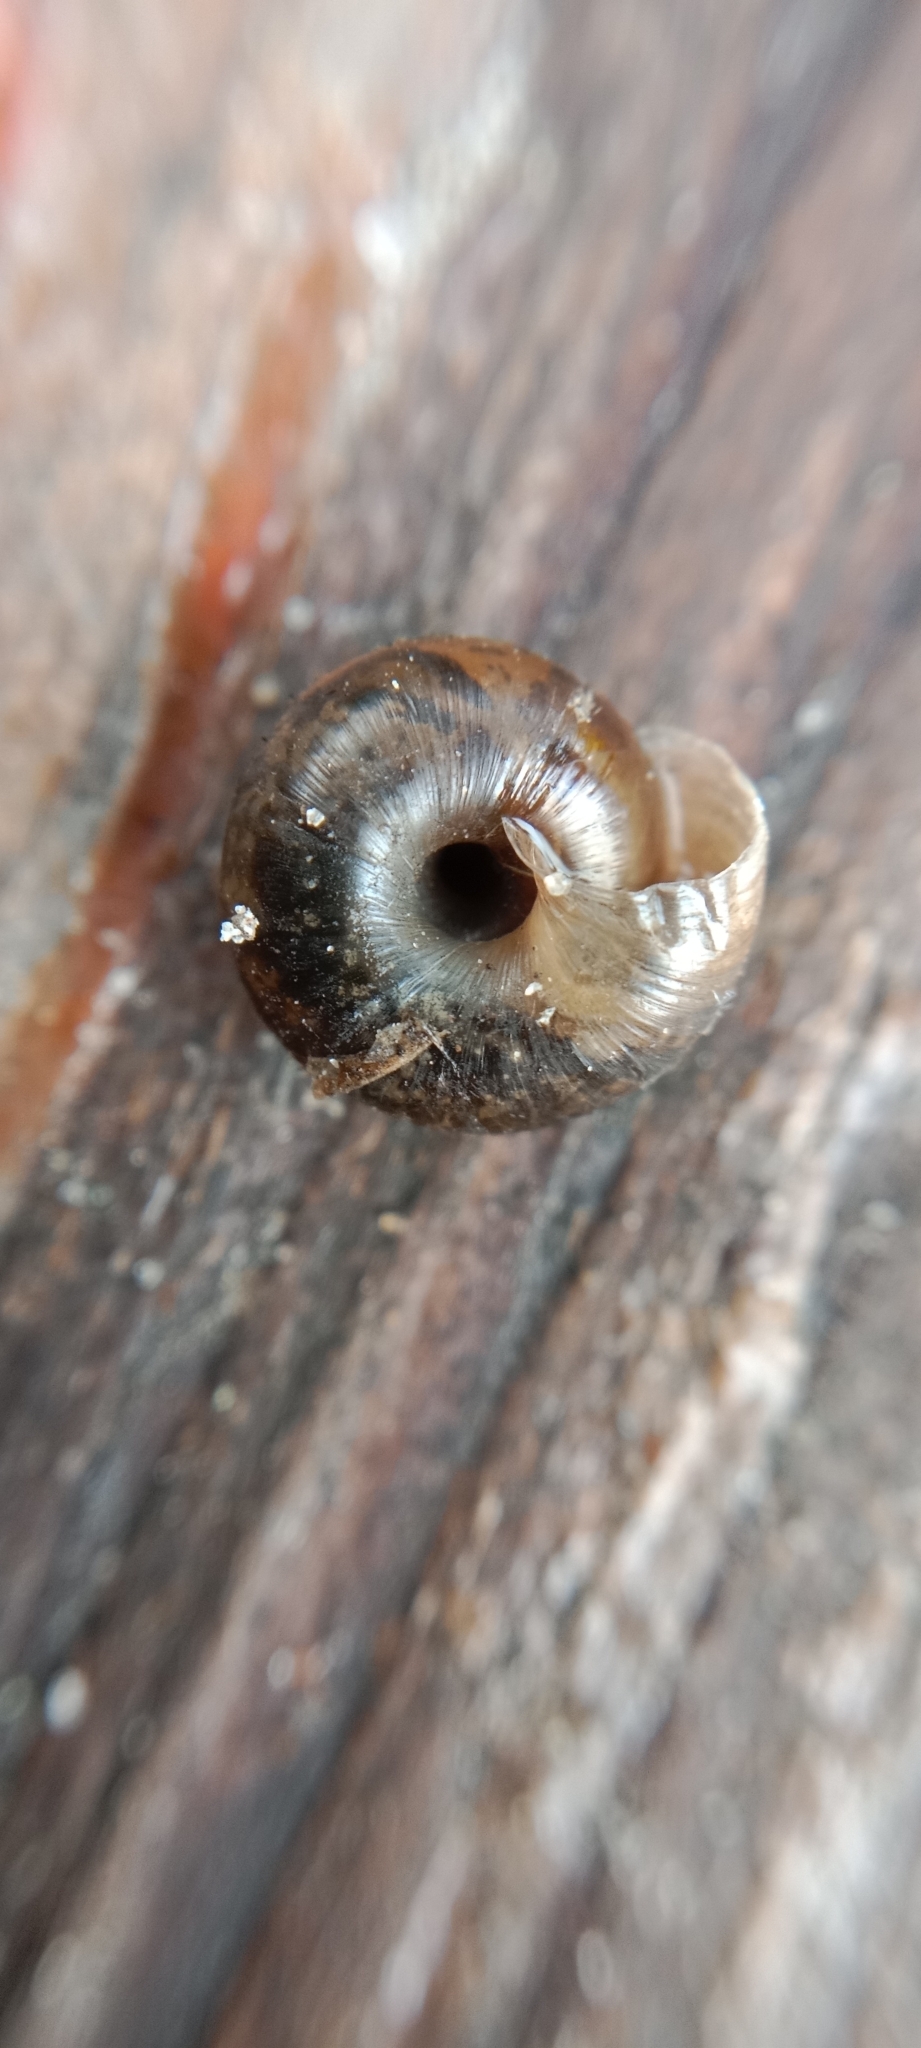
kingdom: Animalia
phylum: Mollusca
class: Gastropoda
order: Stylommatophora
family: Hygromiidae
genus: Trochulus
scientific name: Trochulus hispidus
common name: Hairy snail
